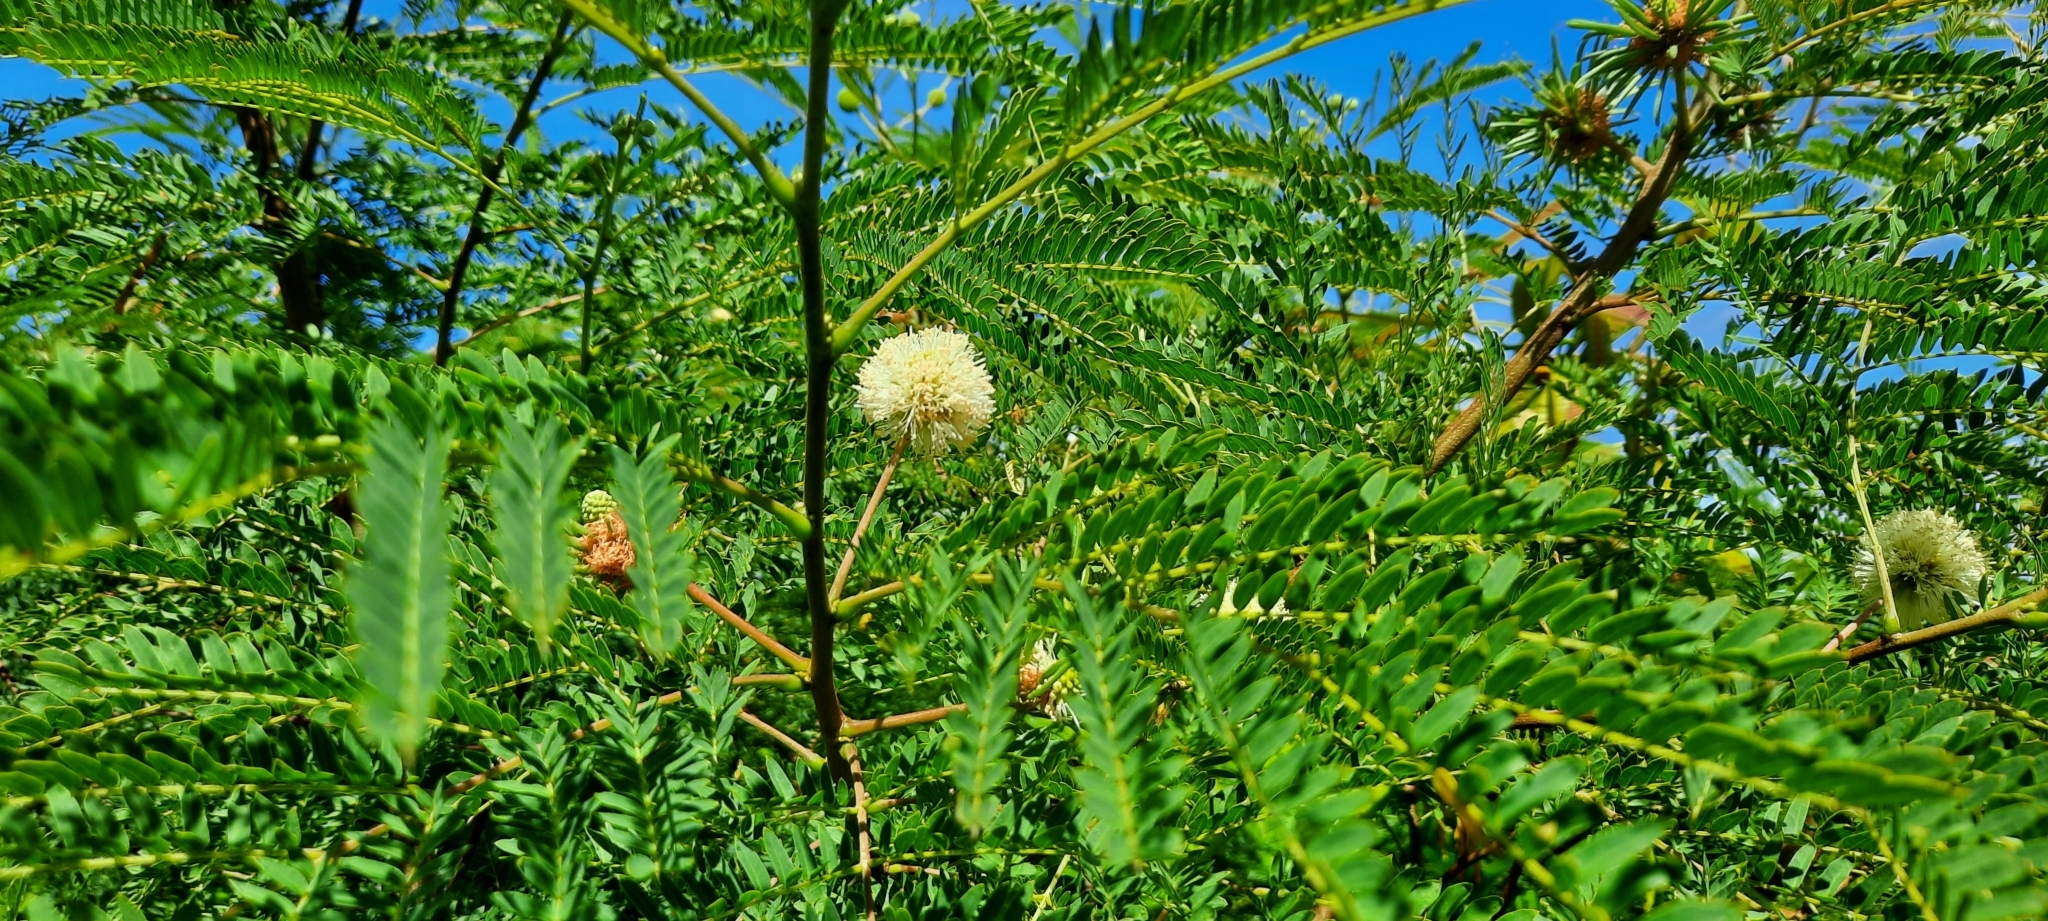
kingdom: Plantae
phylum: Tracheophyta
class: Magnoliopsida
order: Fabales
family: Fabaceae
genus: Leucaena
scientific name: Leucaena leucocephala
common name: White leadtree
